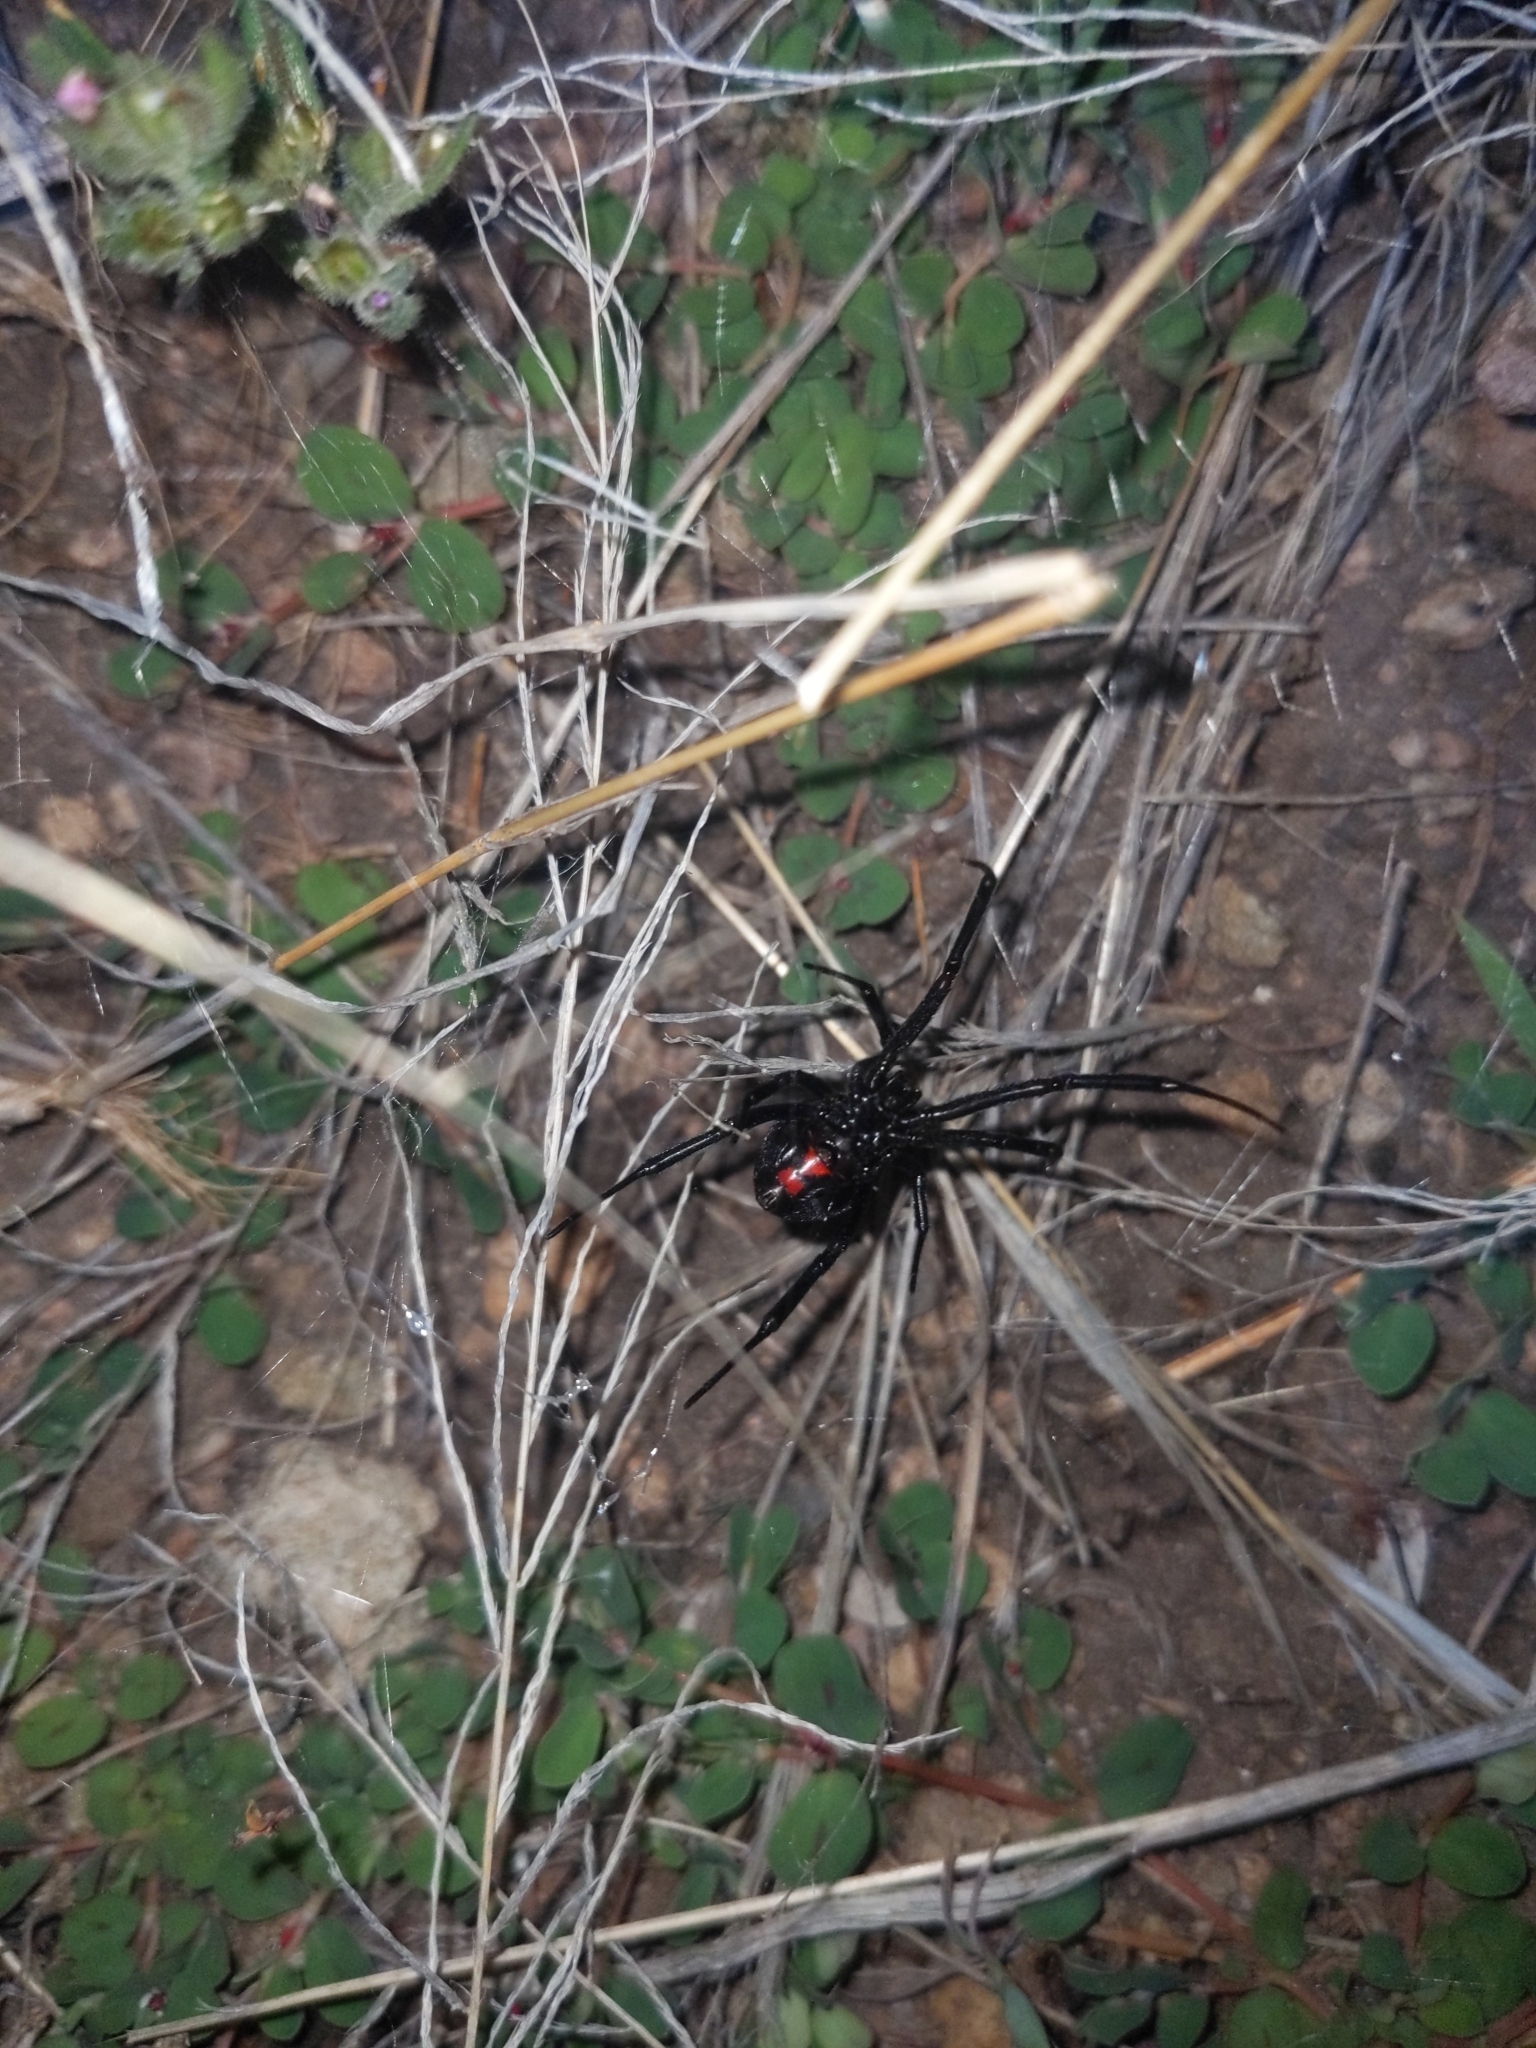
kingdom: Animalia
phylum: Arthropoda
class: Arachnida
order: Araneae
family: Theridiidae
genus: Latrodectus
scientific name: Latrodectus hesperus
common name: Western black widow
